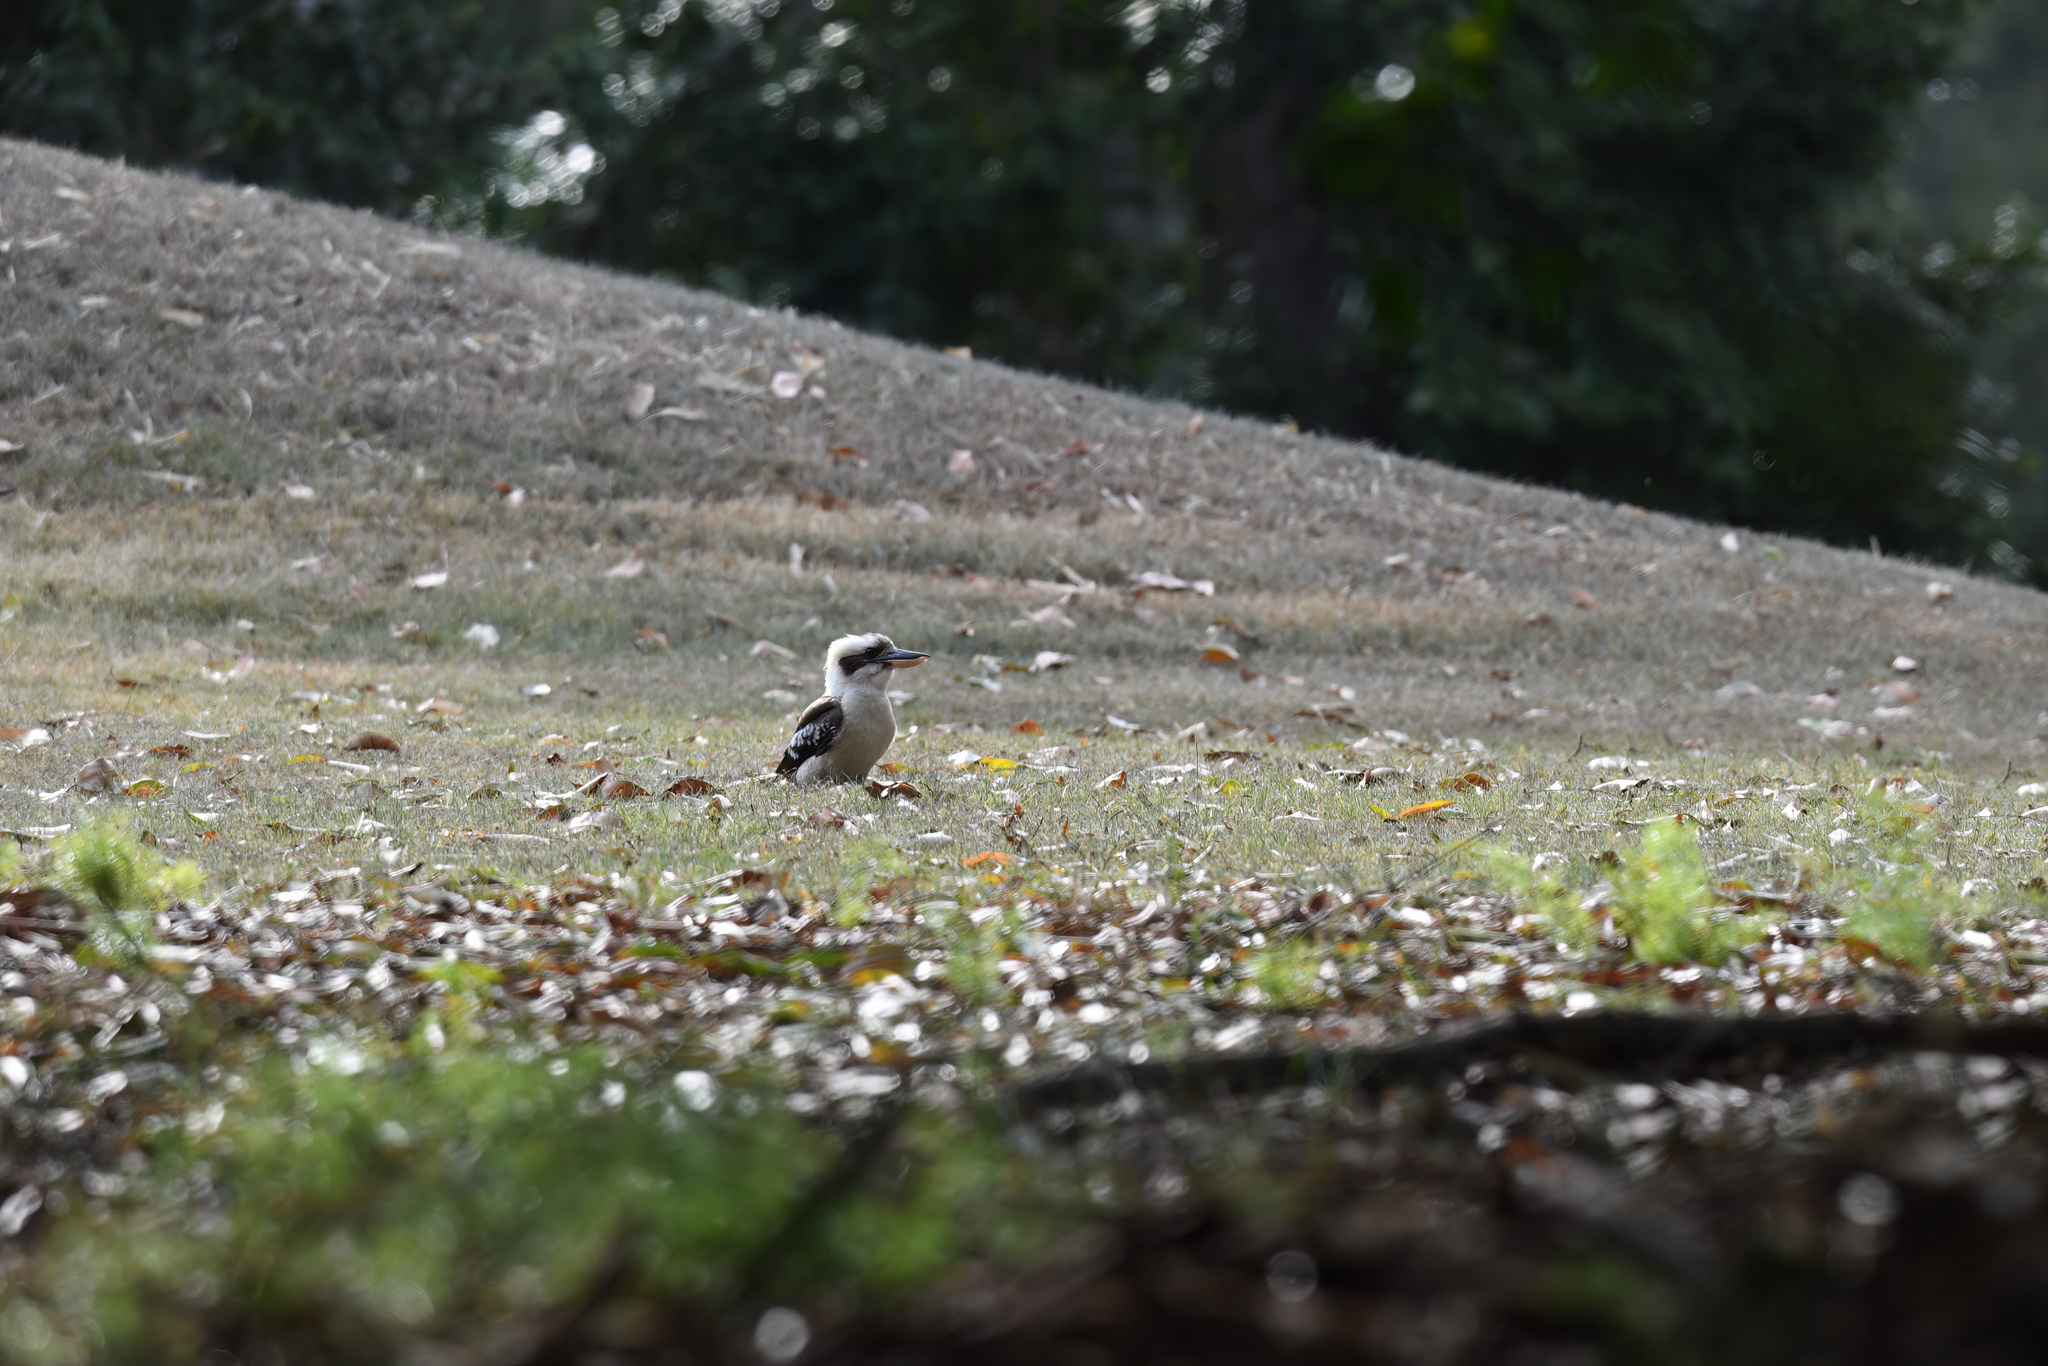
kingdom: Animalia
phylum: Chordata
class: Aves
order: Coraciiformes
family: Alcedinidae
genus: Dacelo
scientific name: Dacelo novaeguineae
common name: Laughing kookaburra
